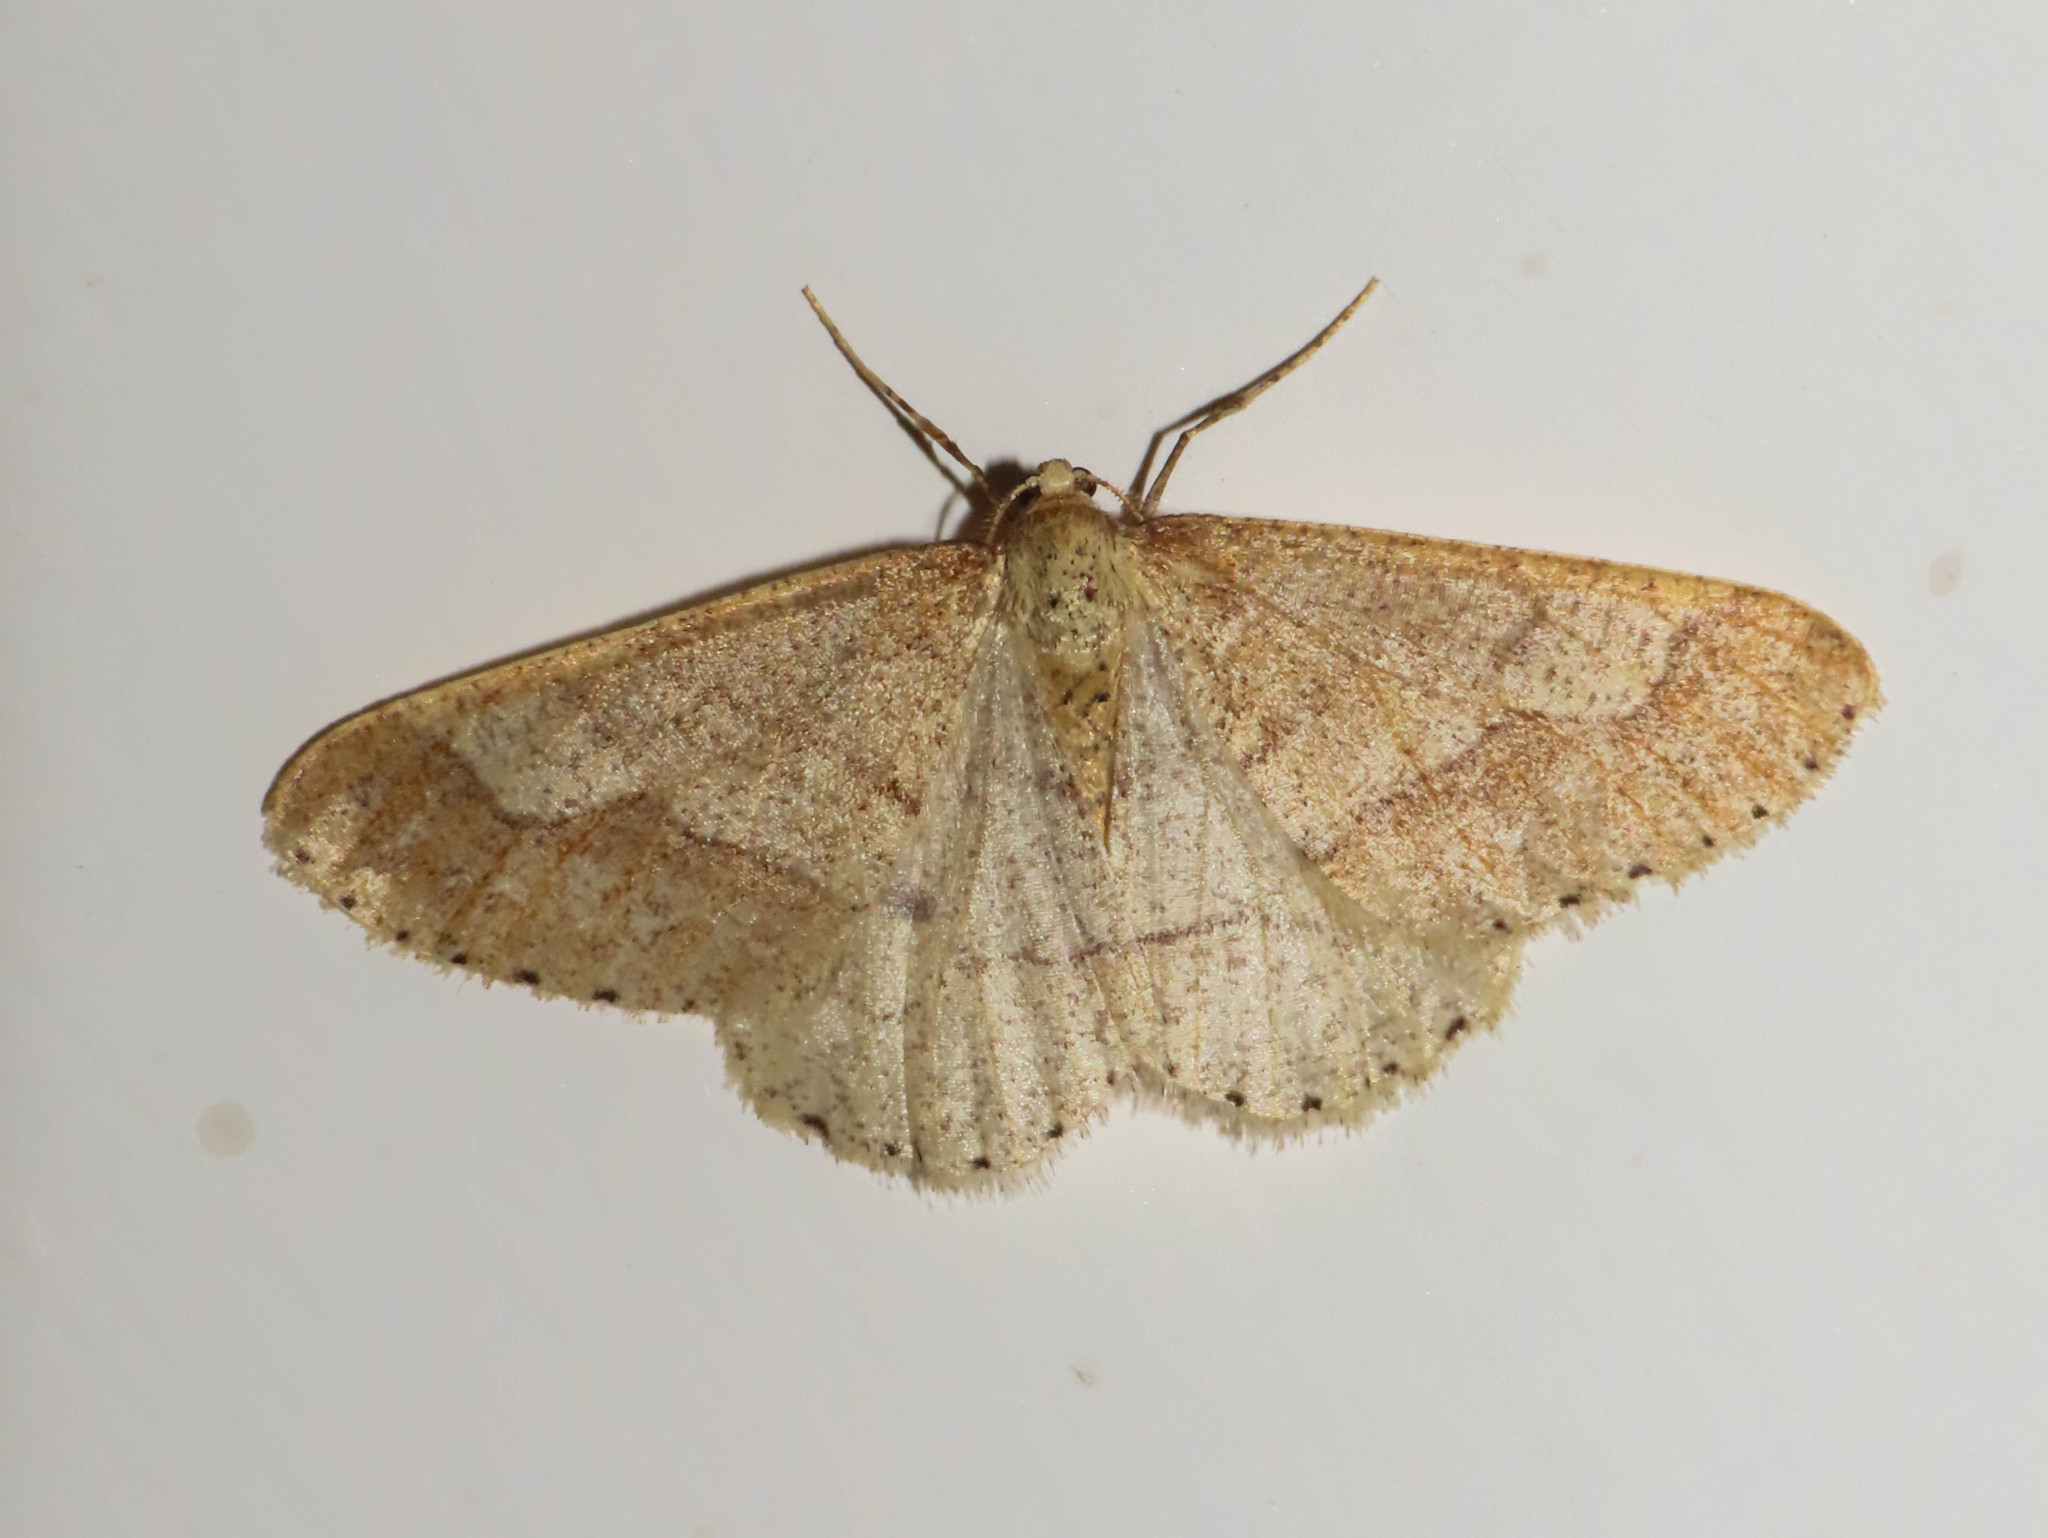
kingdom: Animalia
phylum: Arthropoda
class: Insecta
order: Lepidoptera
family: Geometridae
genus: Agriopis
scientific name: Agriopis marginaria
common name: Dotted border
